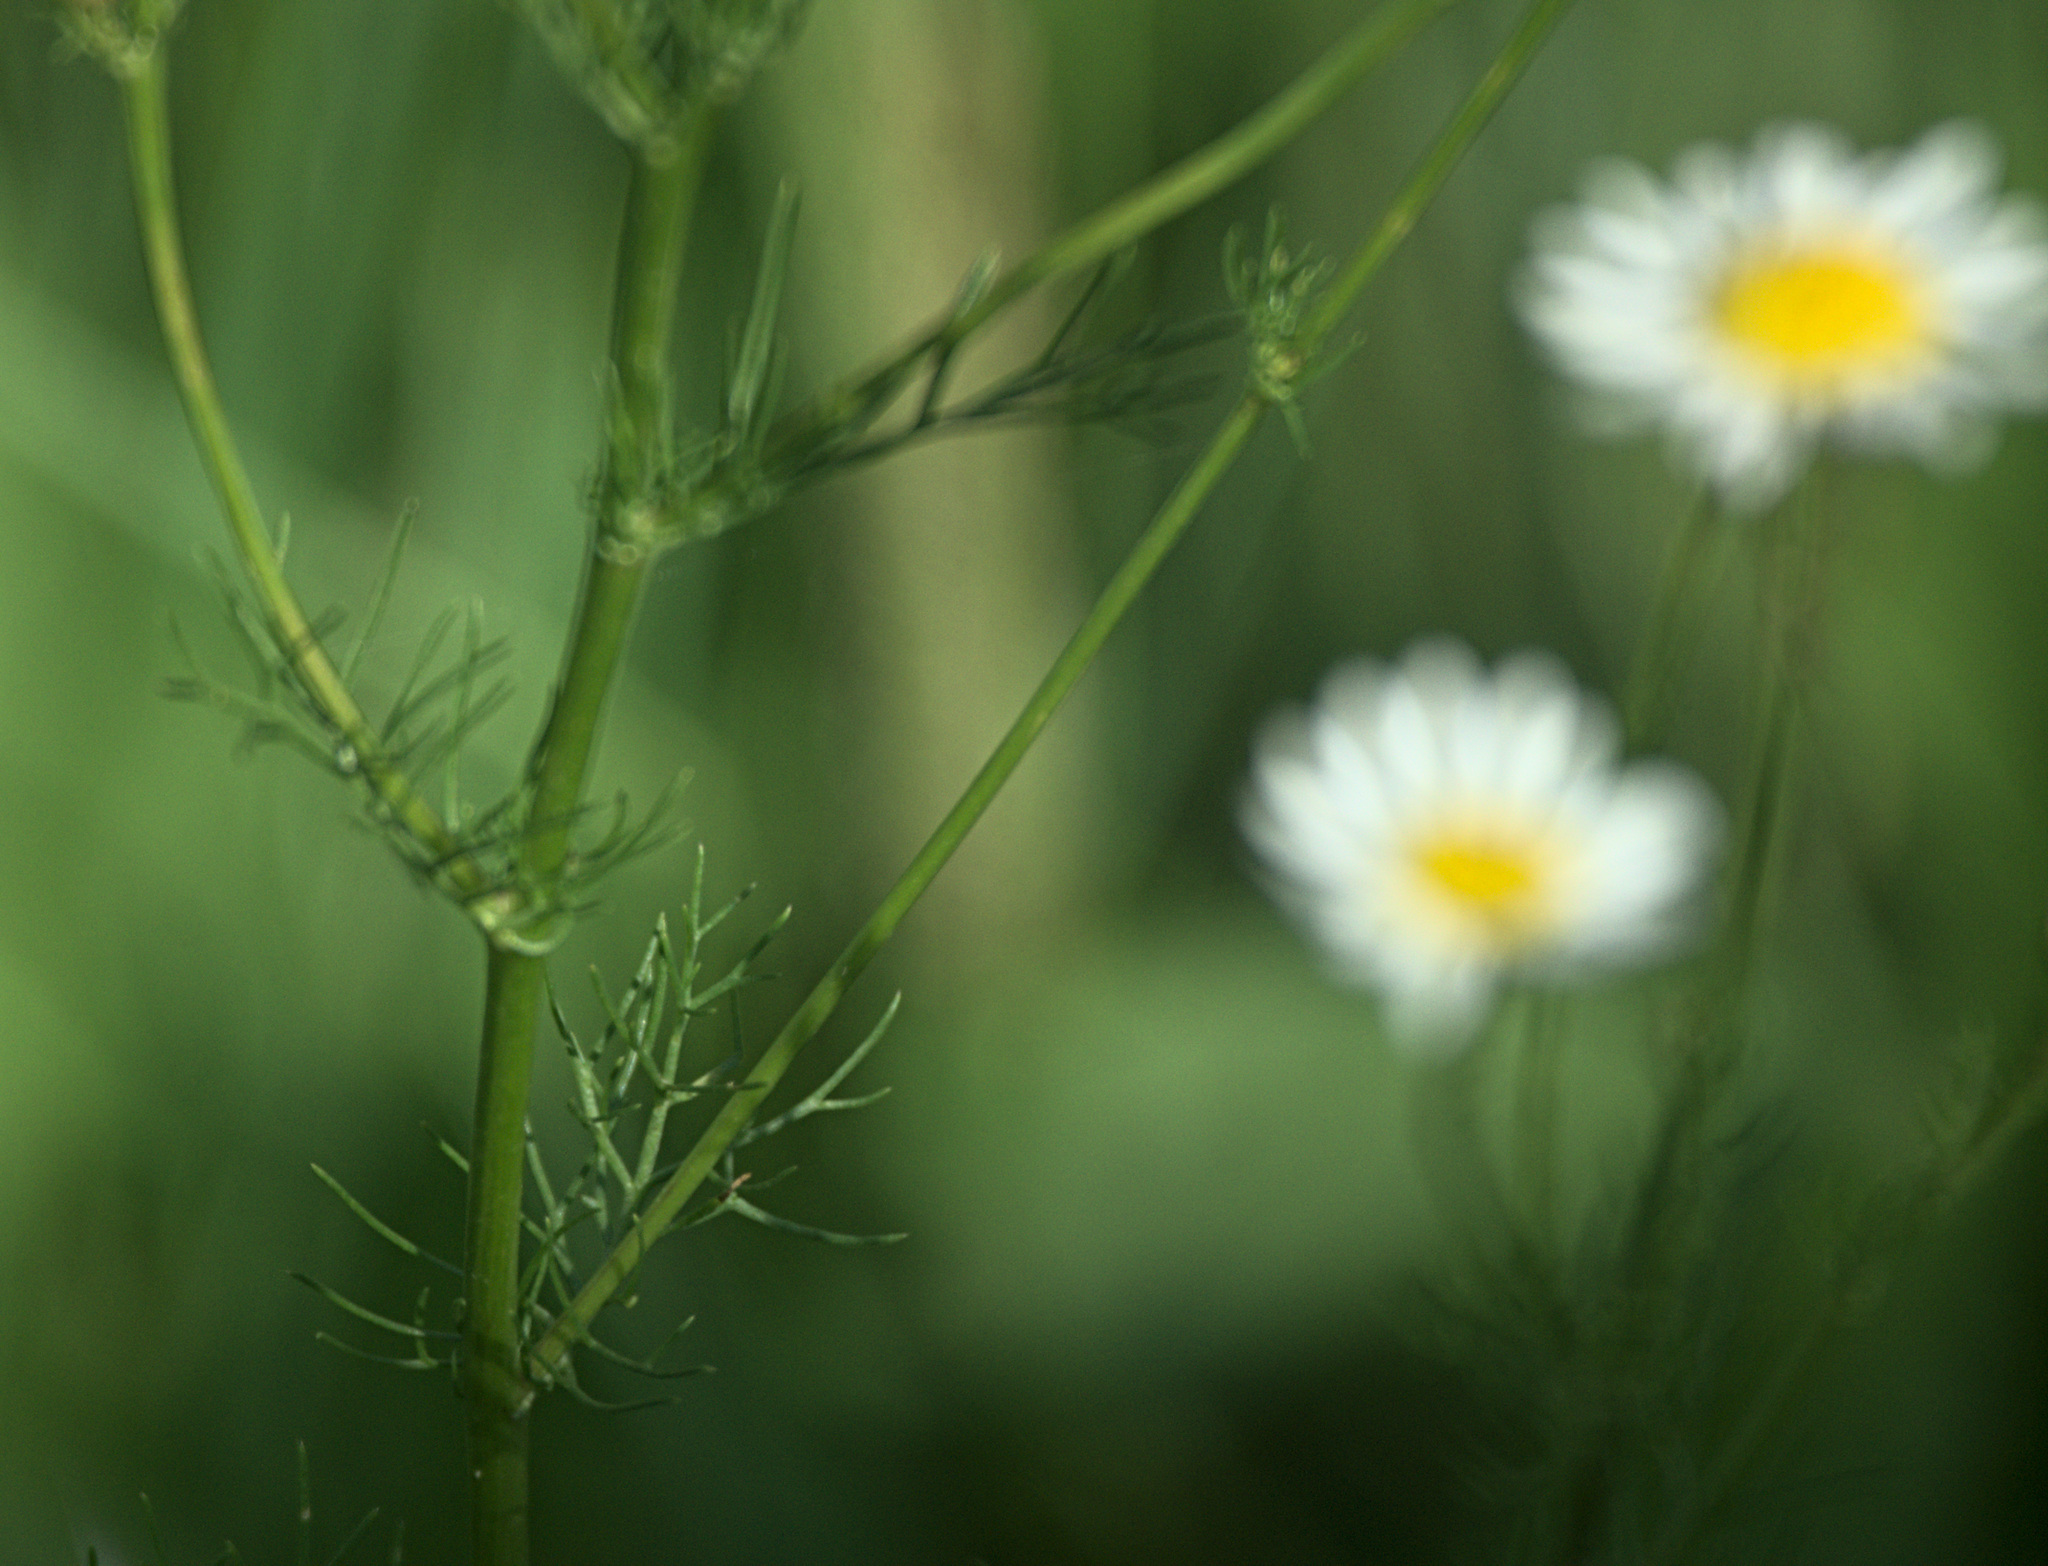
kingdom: Plantae
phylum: Tracheophyta
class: Magnoliopsida
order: Asterales
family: Asteraceae
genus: Tripleurospermum
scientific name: Tripleurospermum inodorum
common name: Scentless mayweed
